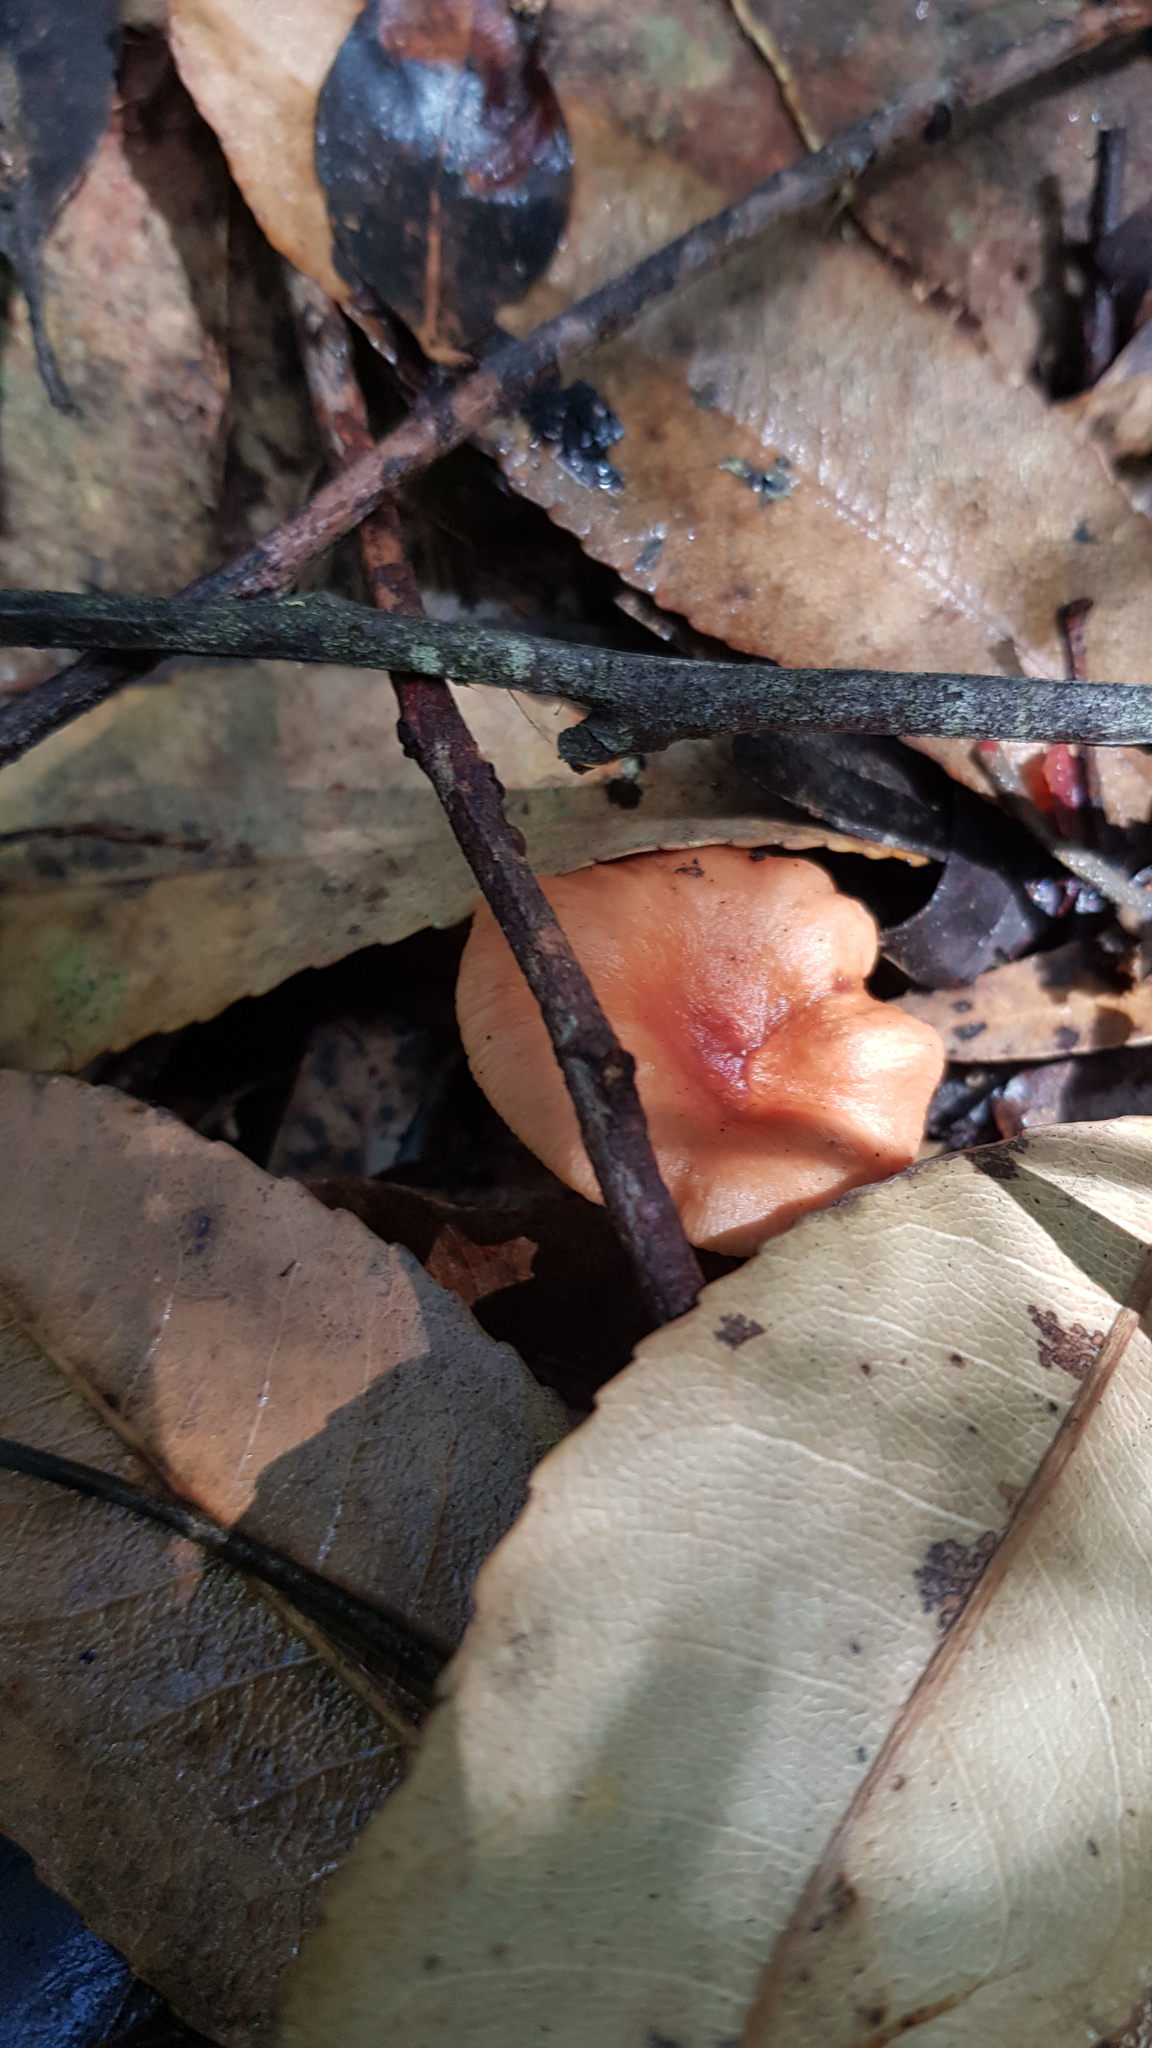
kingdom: Fungi
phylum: Basidiomycota
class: Agaricomycetes
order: Russulales
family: Russulaceae
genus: Lactarius
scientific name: Lactarius eucalypti
